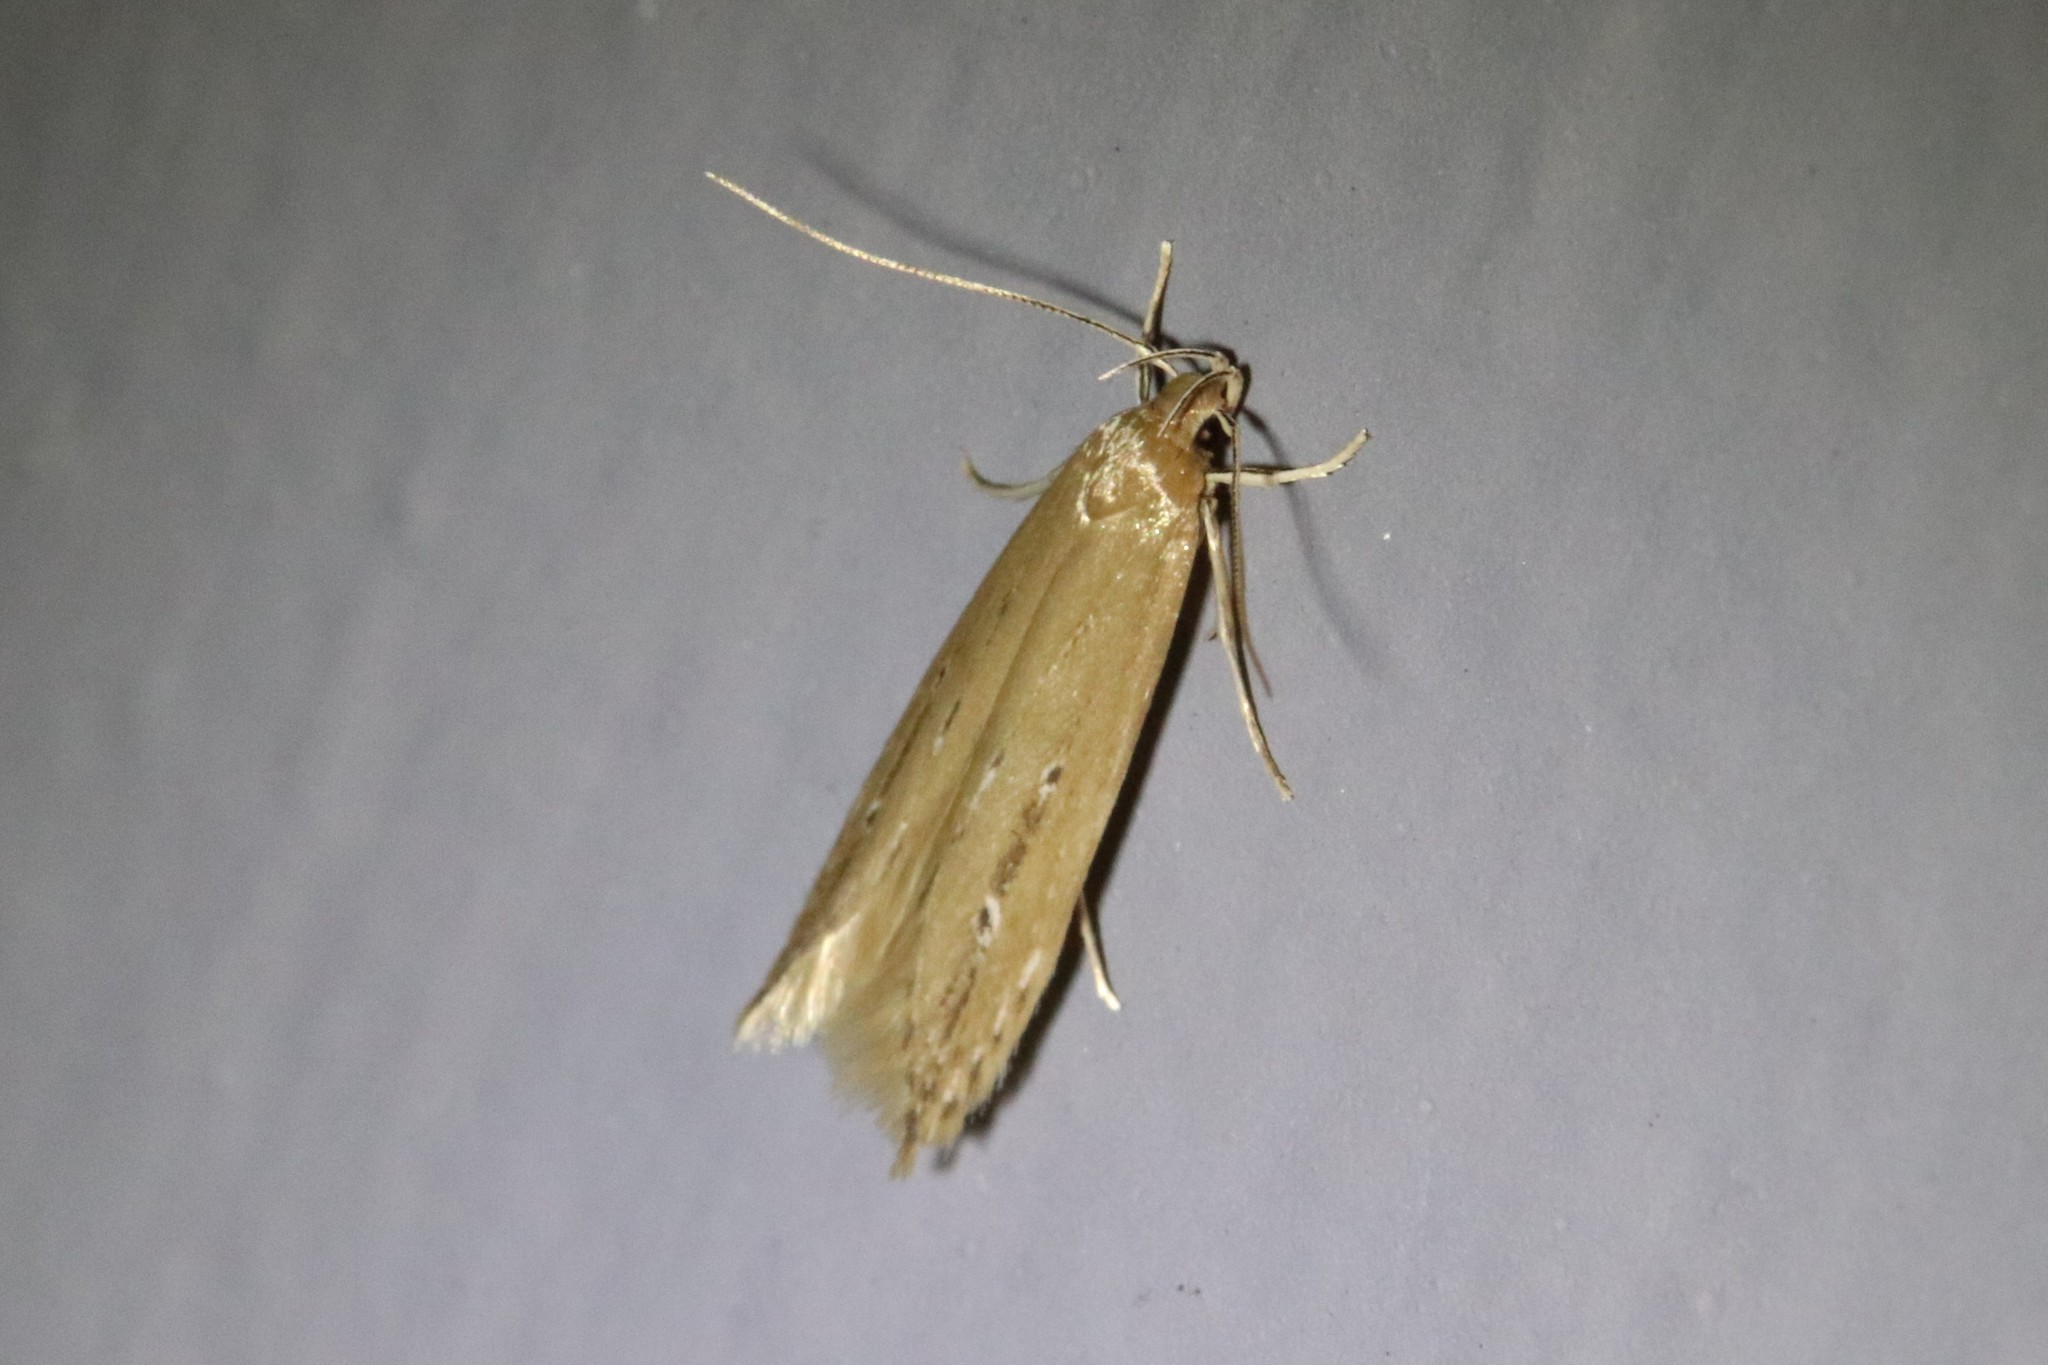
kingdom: Animalia
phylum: Arthropoda
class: Insecta
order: Lepidoptera
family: Cosmopterigidae
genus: Limnaecia
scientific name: Limnaecia phragmitella
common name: Bulrush cosmet
